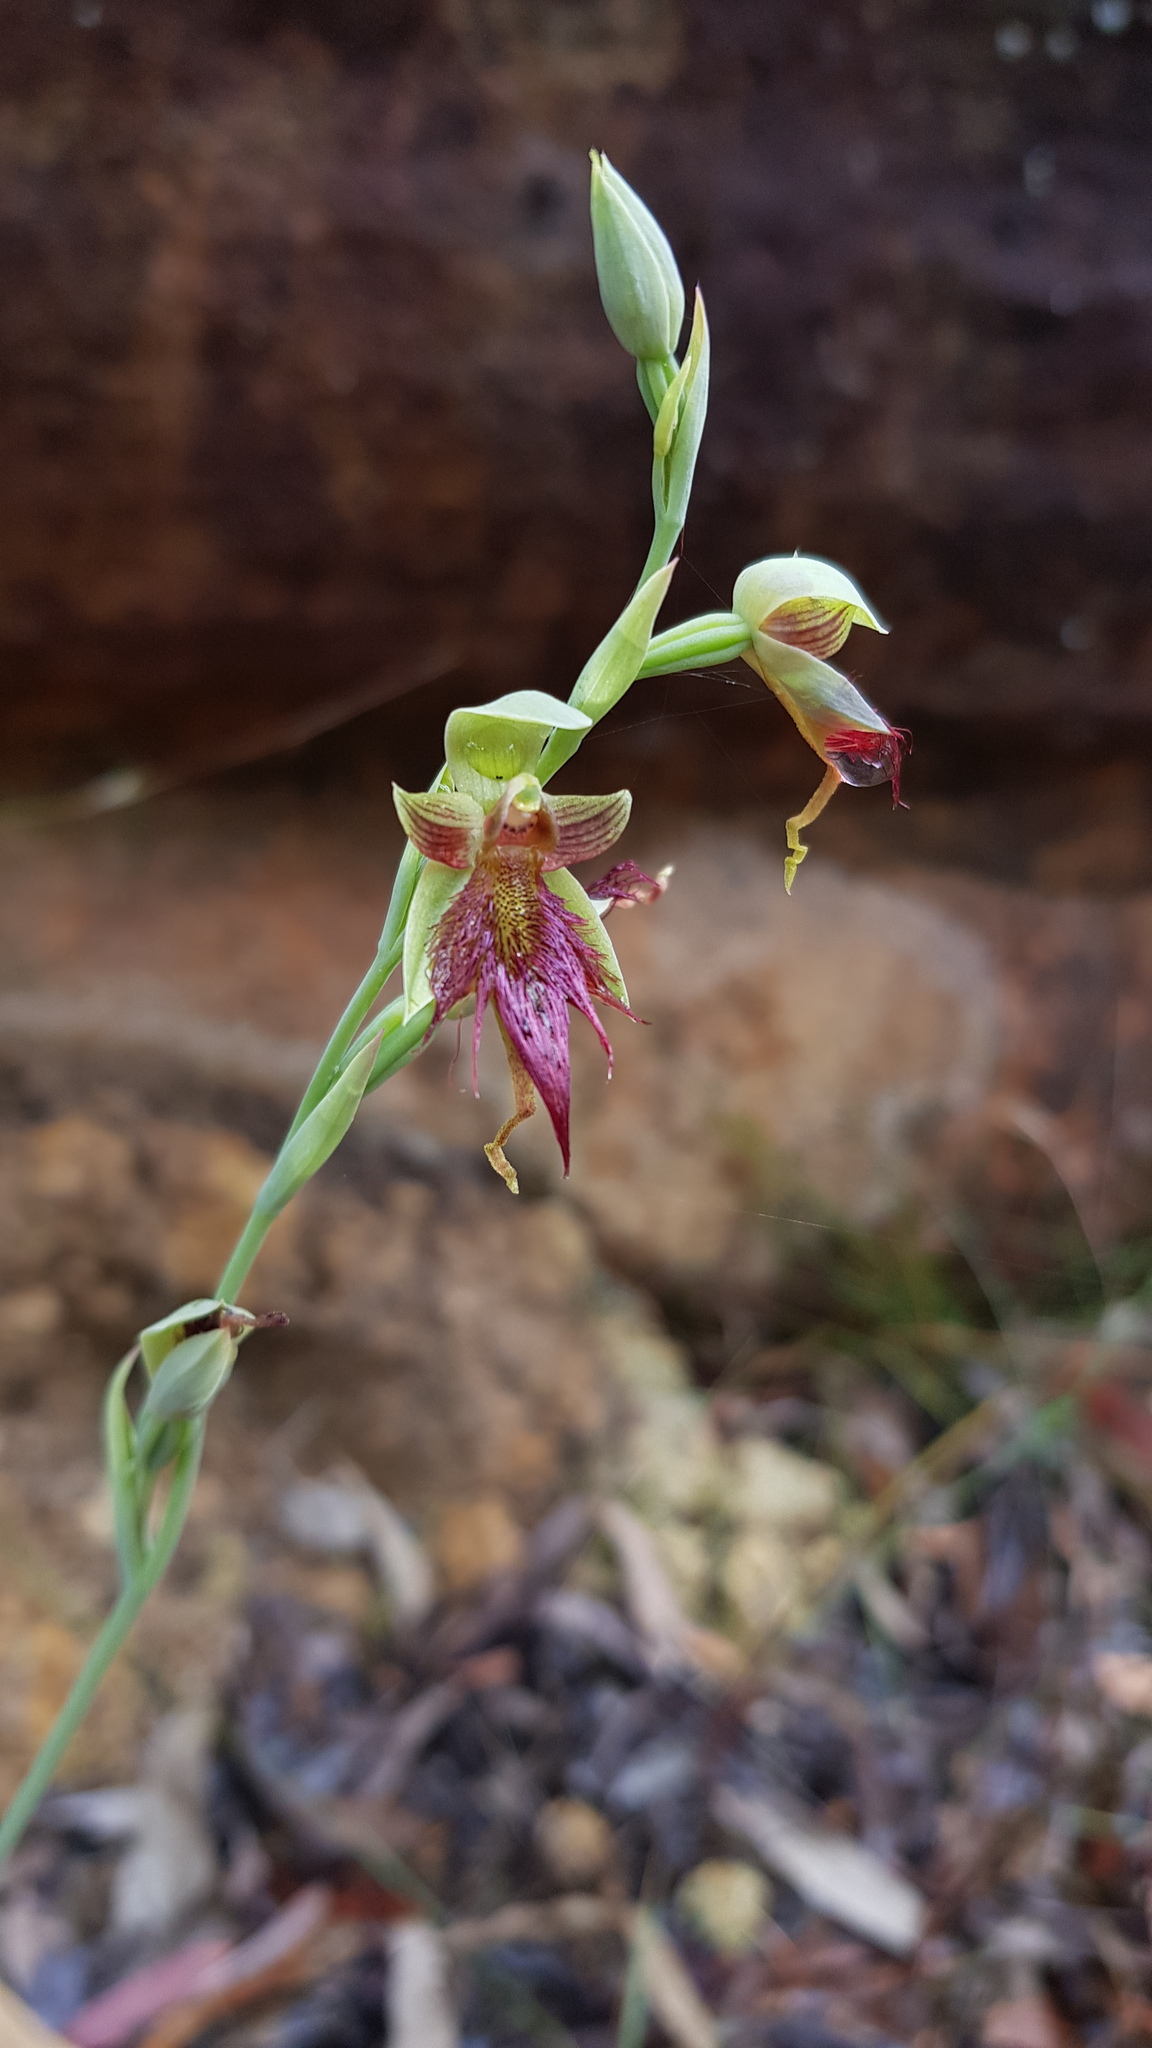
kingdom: Plantae
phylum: Tracheophyta
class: Liliopsida
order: Asparagales
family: Orchidaceae
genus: Calochilus
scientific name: Calochilus paludosus
